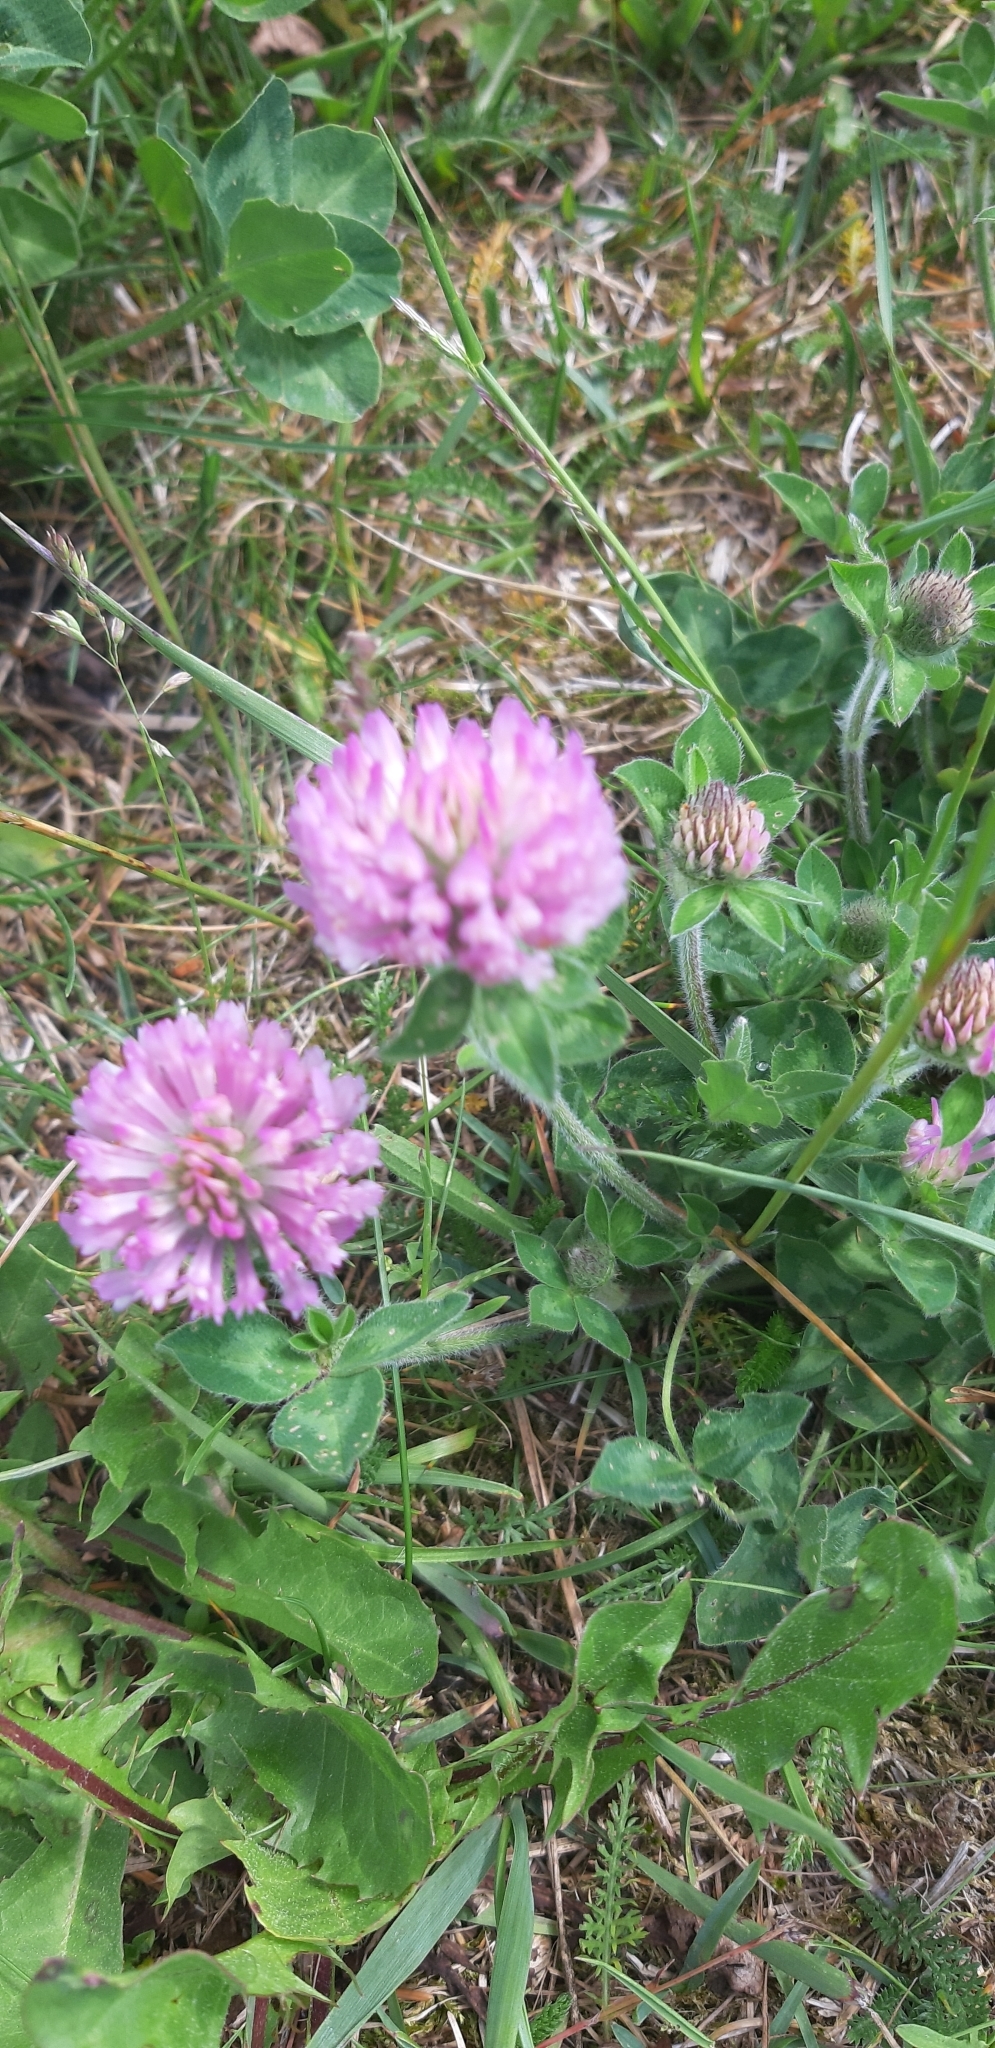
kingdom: Plantae
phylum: Tracheophyta
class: Magnoliopsida
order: Fabales
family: Fabaceae
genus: Trifolium
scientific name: Trifolium pratense
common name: Red clover
